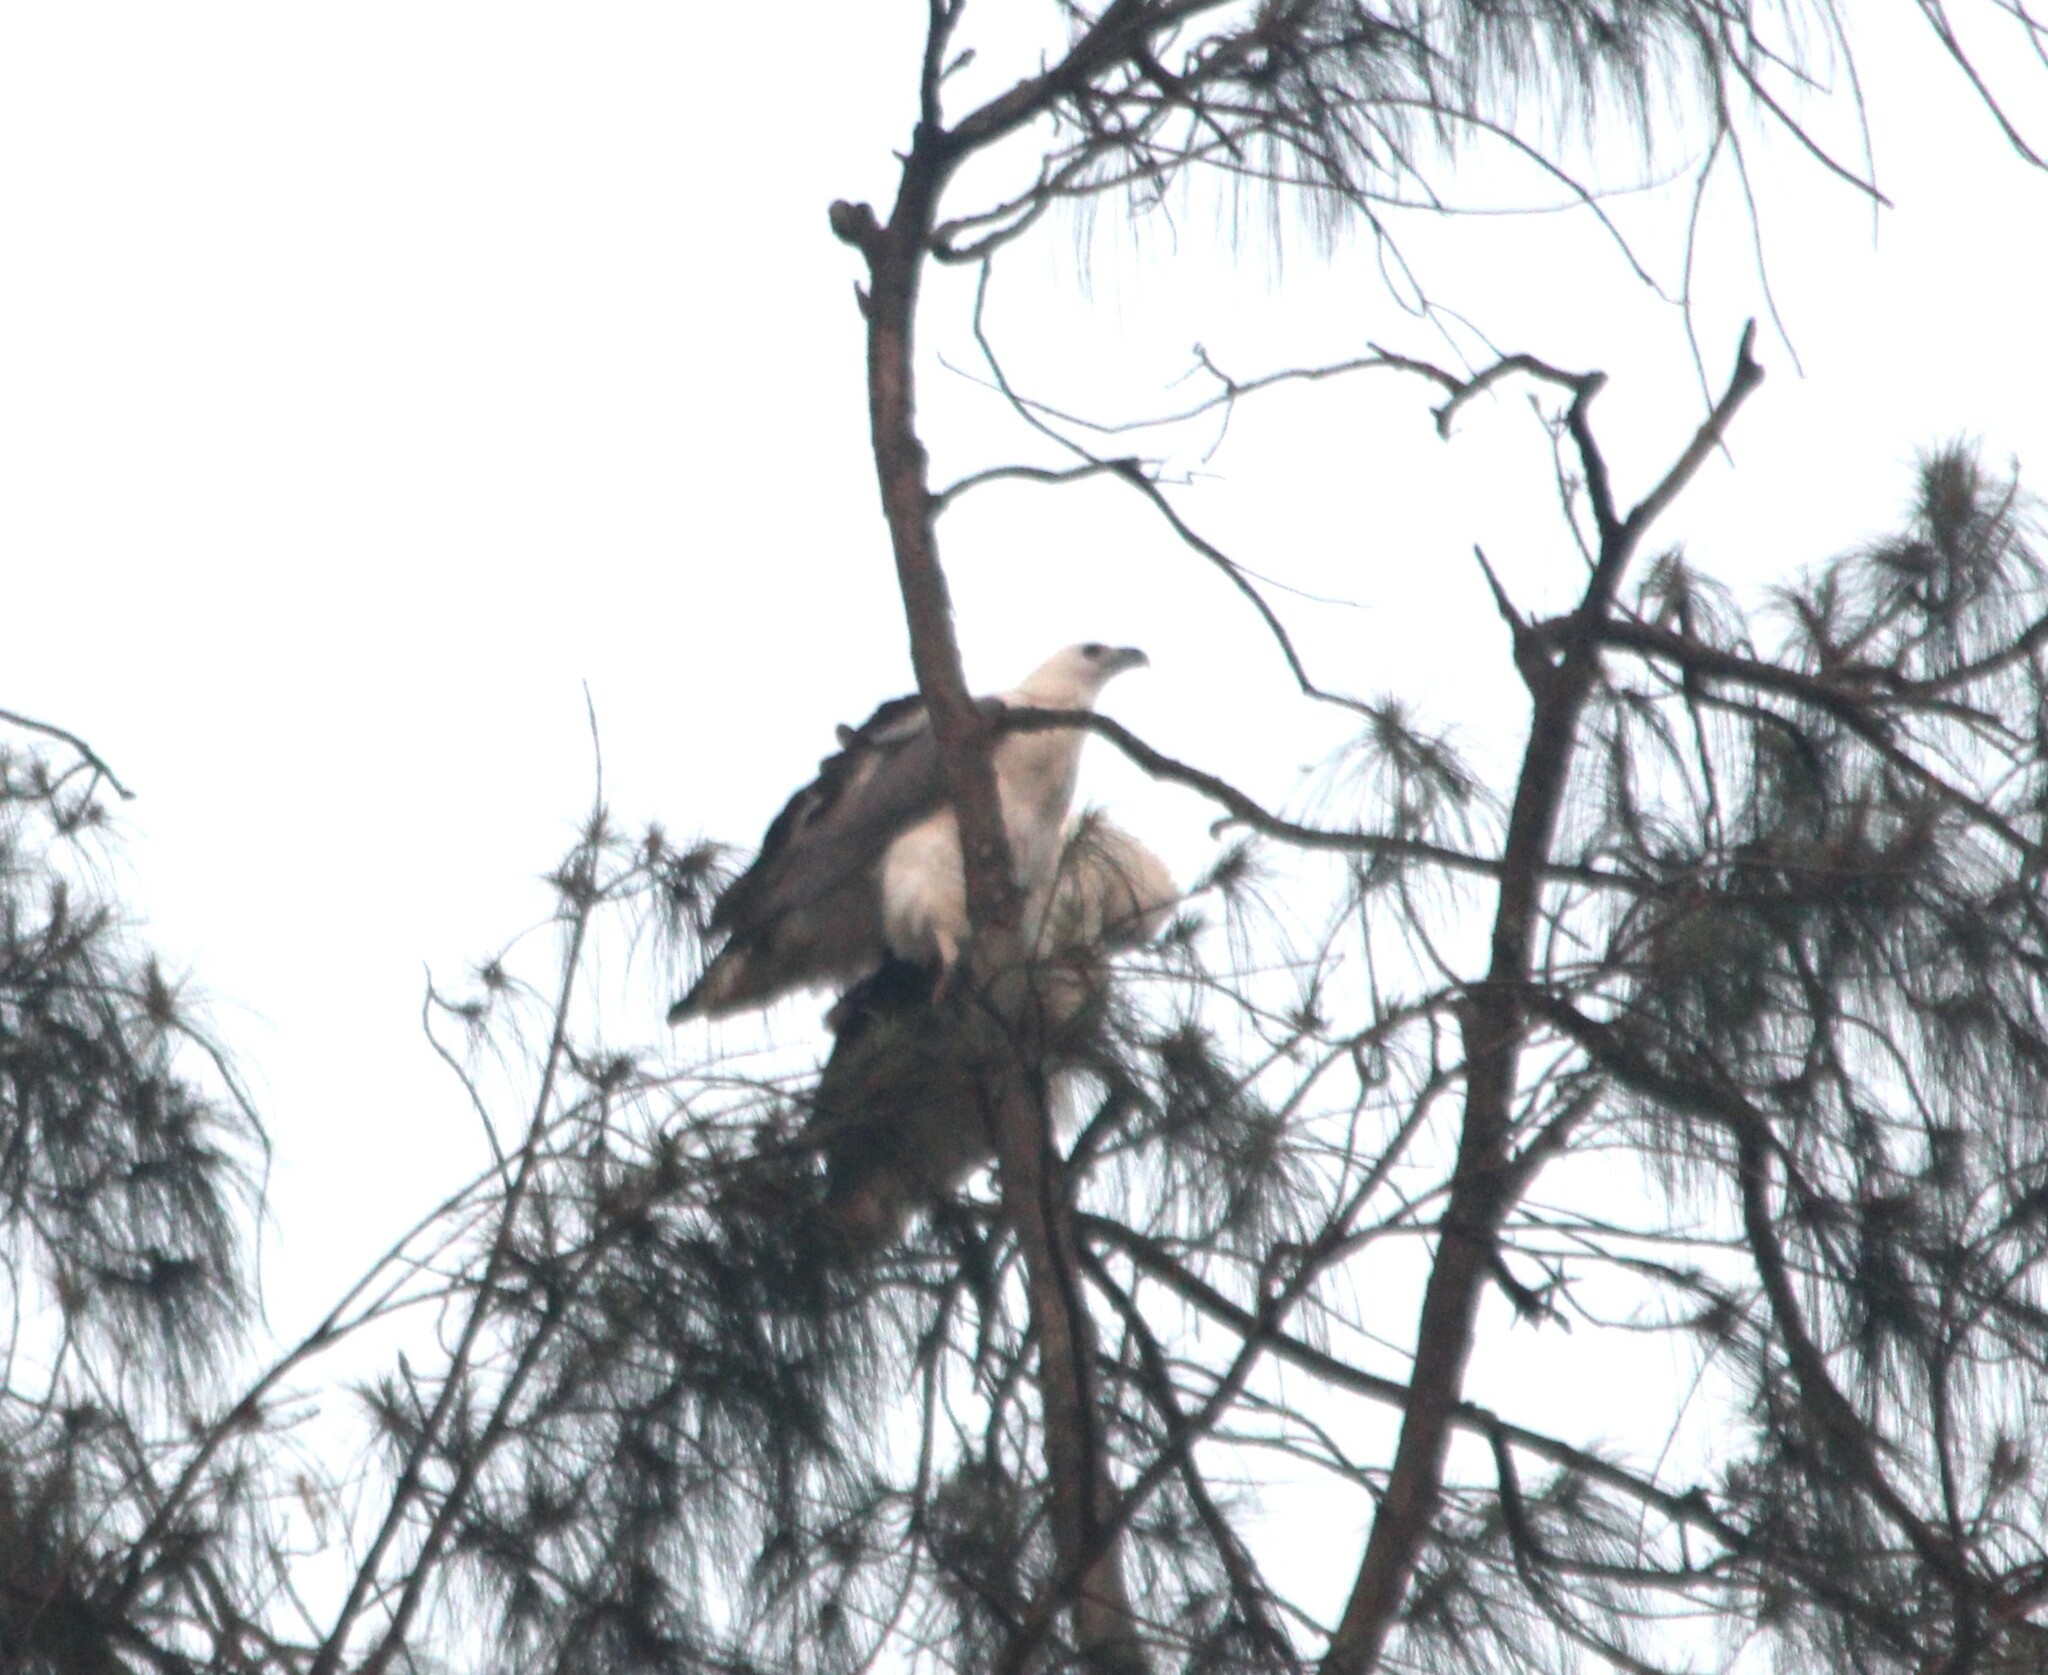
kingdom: Animalia
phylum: Chordata
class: Aves
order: Accipitriformes
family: Accipitridae
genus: Haliaeetus
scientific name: Haliaeetus leucogaster
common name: White-bellied sea eagle
